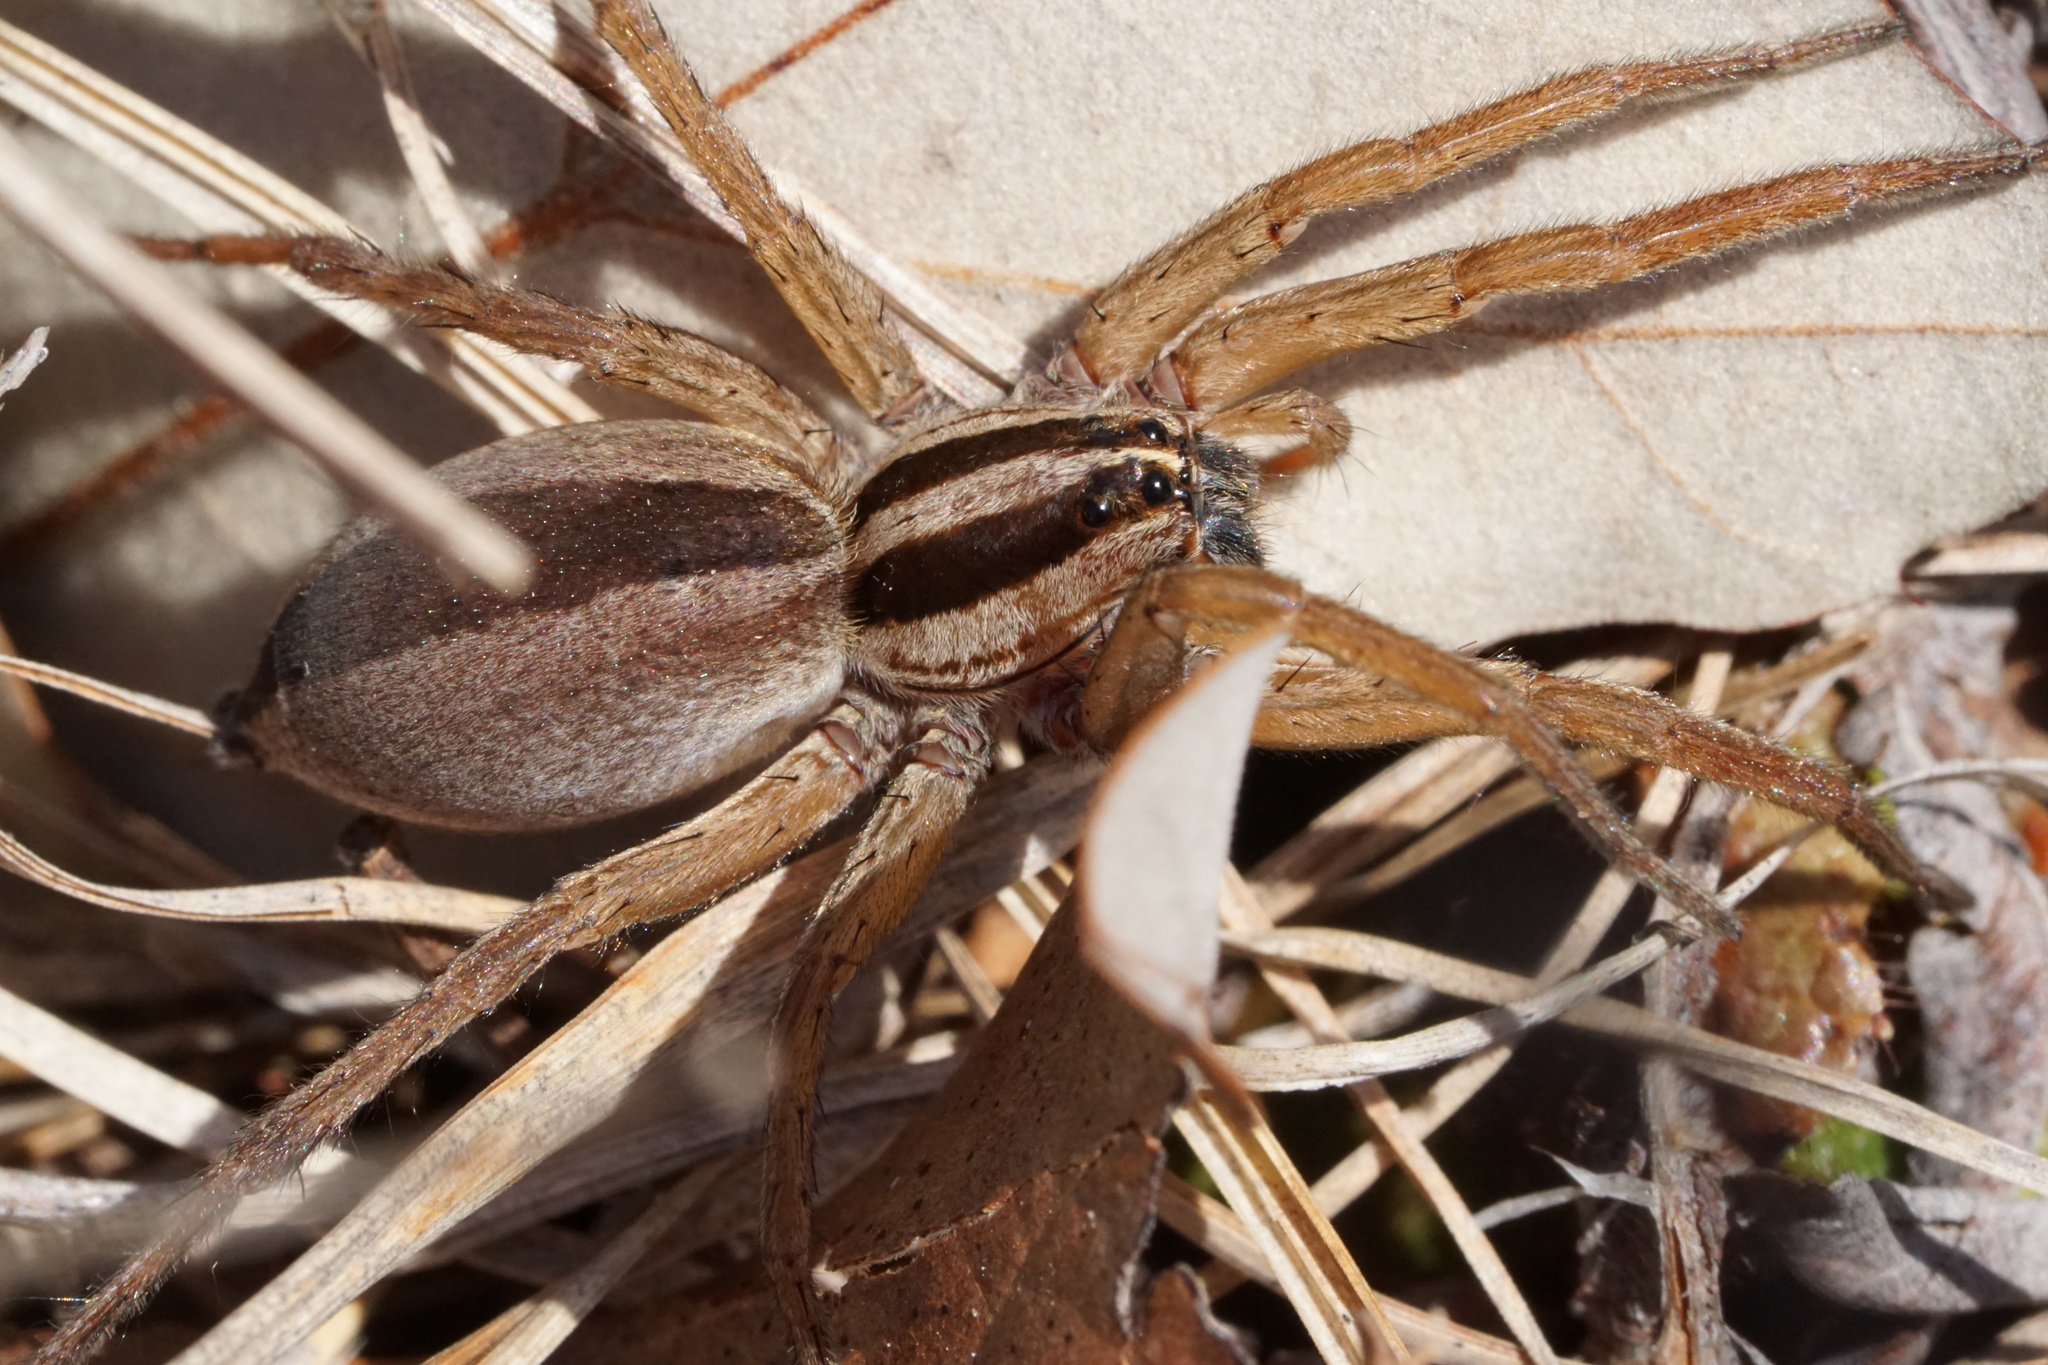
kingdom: Animalia
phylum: Arthropoda
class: Arachnida
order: Araneae
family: Lycosidae
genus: Rabidosa
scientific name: Rabidosa punctulata
